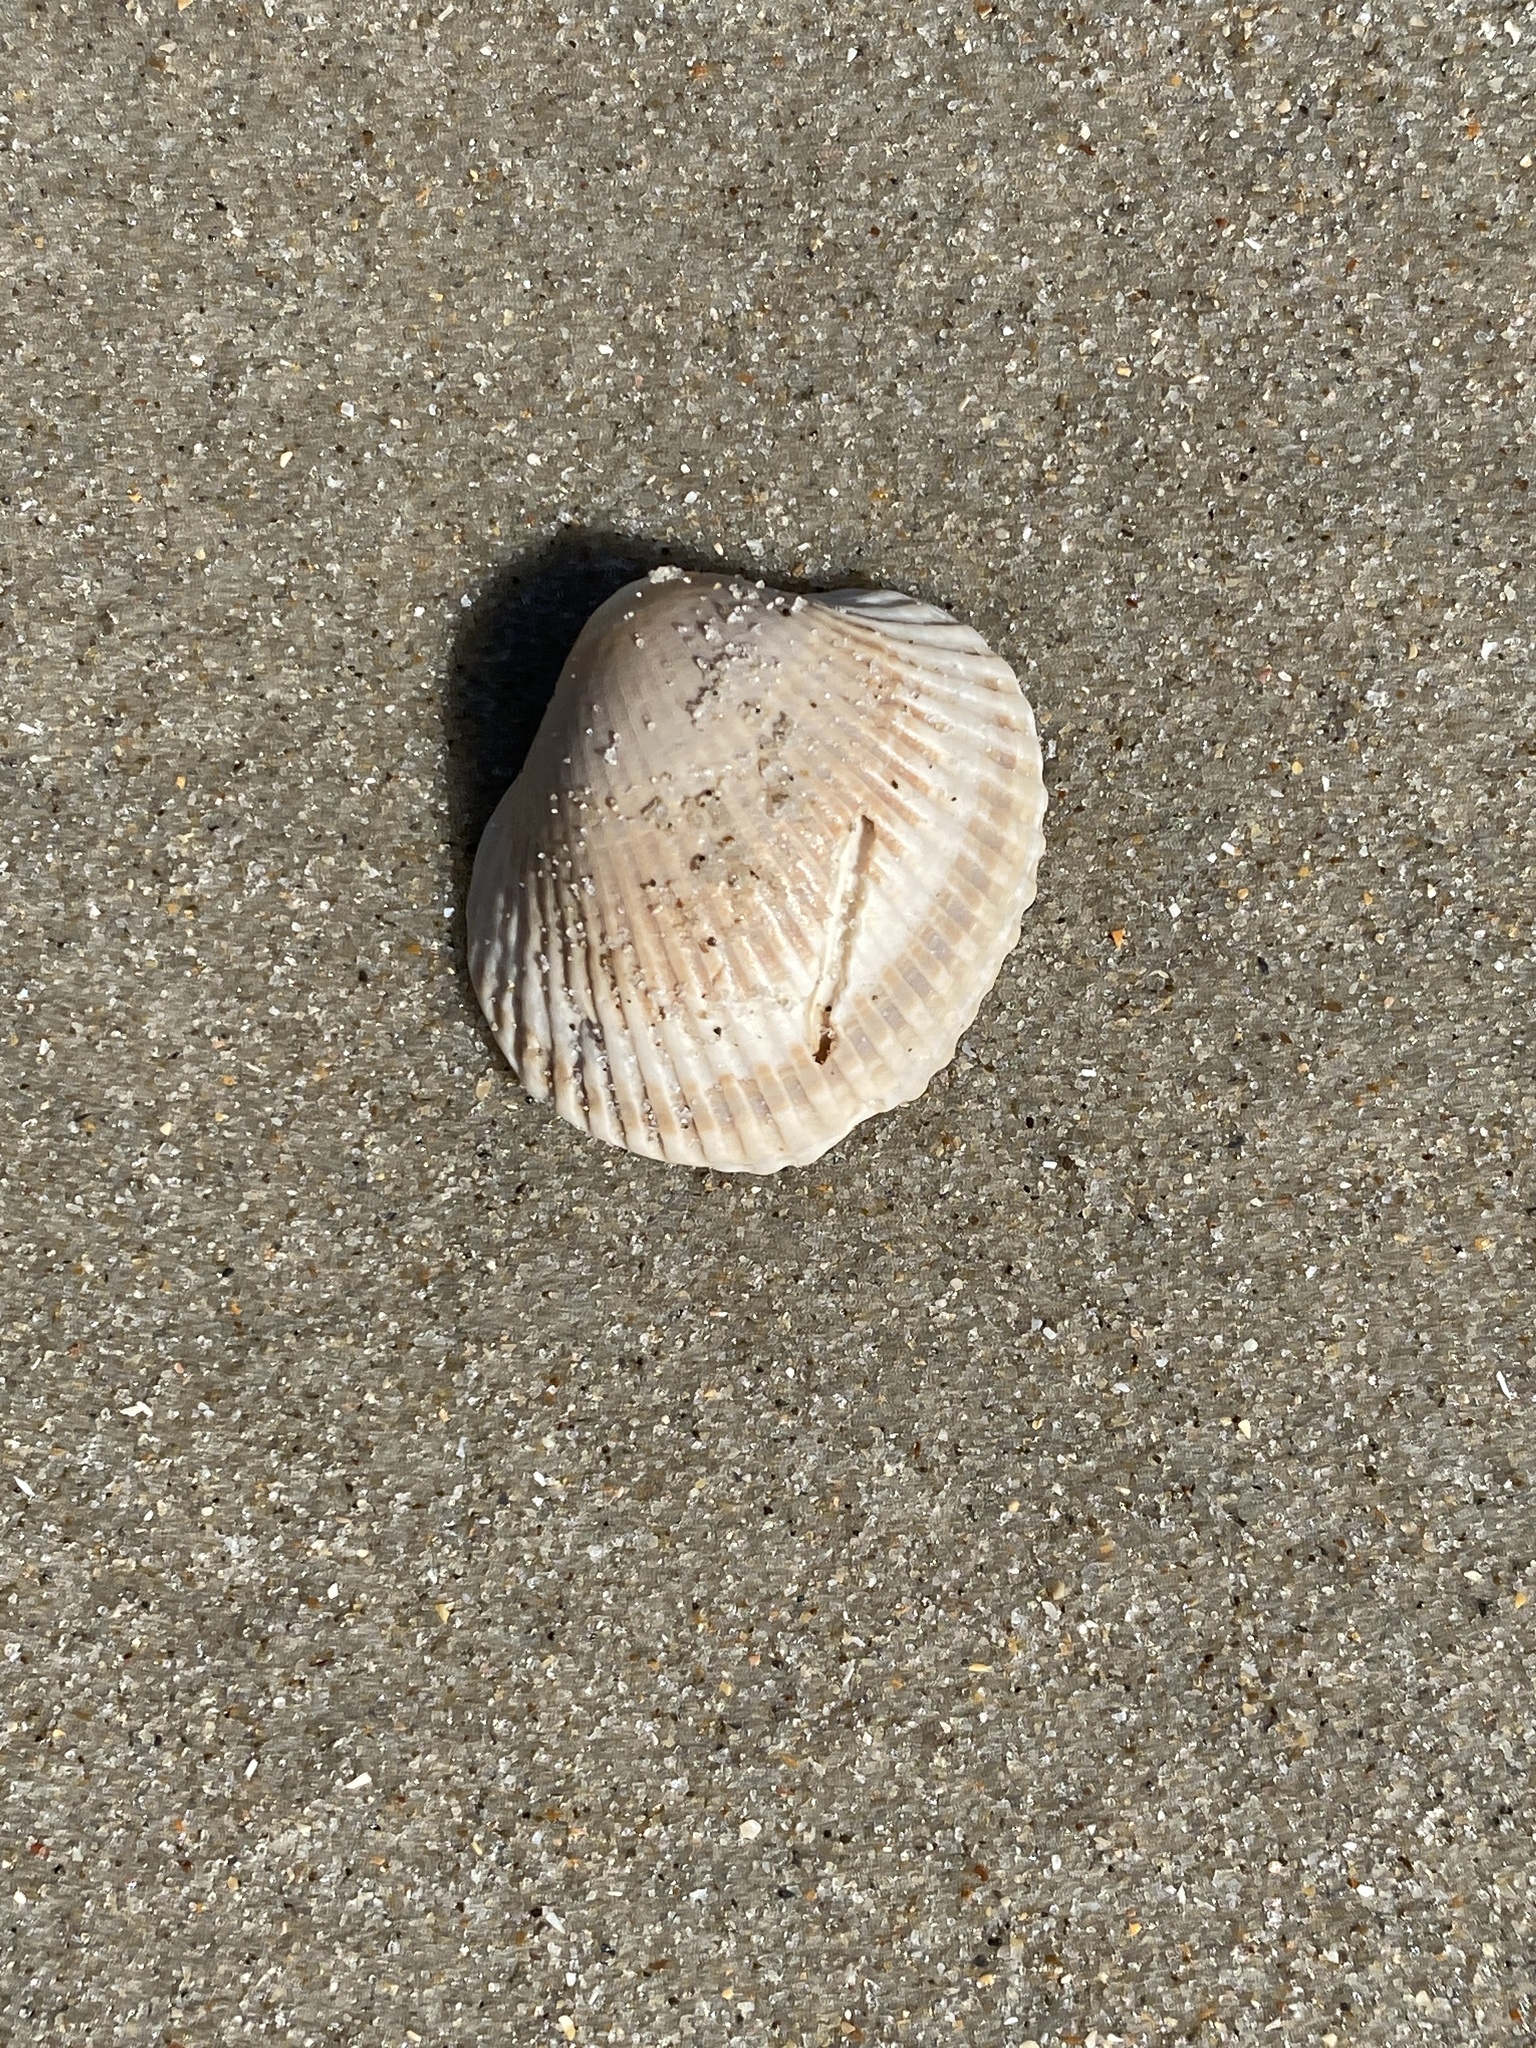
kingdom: Animalia
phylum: Mollusca
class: Bivalvia
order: Arcida
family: Arcidae
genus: Lunarca
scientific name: Lunarca ovalis
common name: Blood ark
